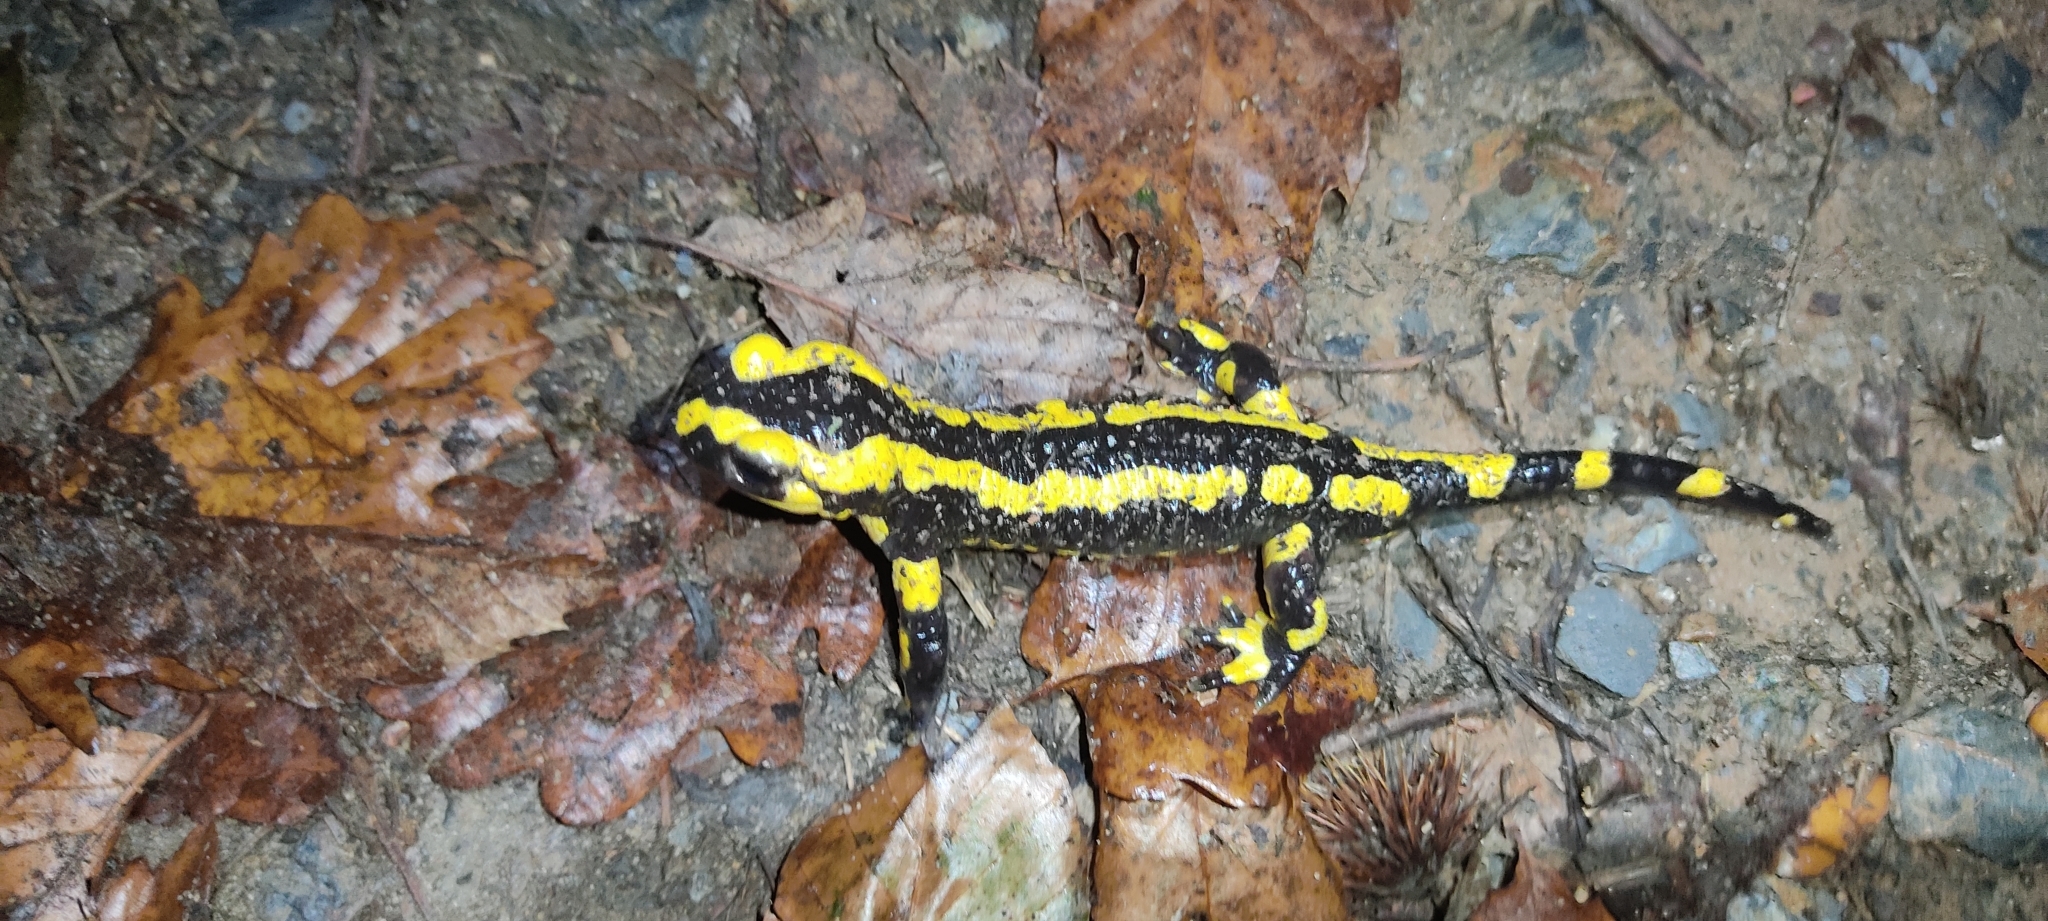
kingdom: Animalia
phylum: Chordata
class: Amphibia
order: Caudata
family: Salamandridae
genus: Salamandra
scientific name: Salamandra salamandra
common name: Fire salamander
